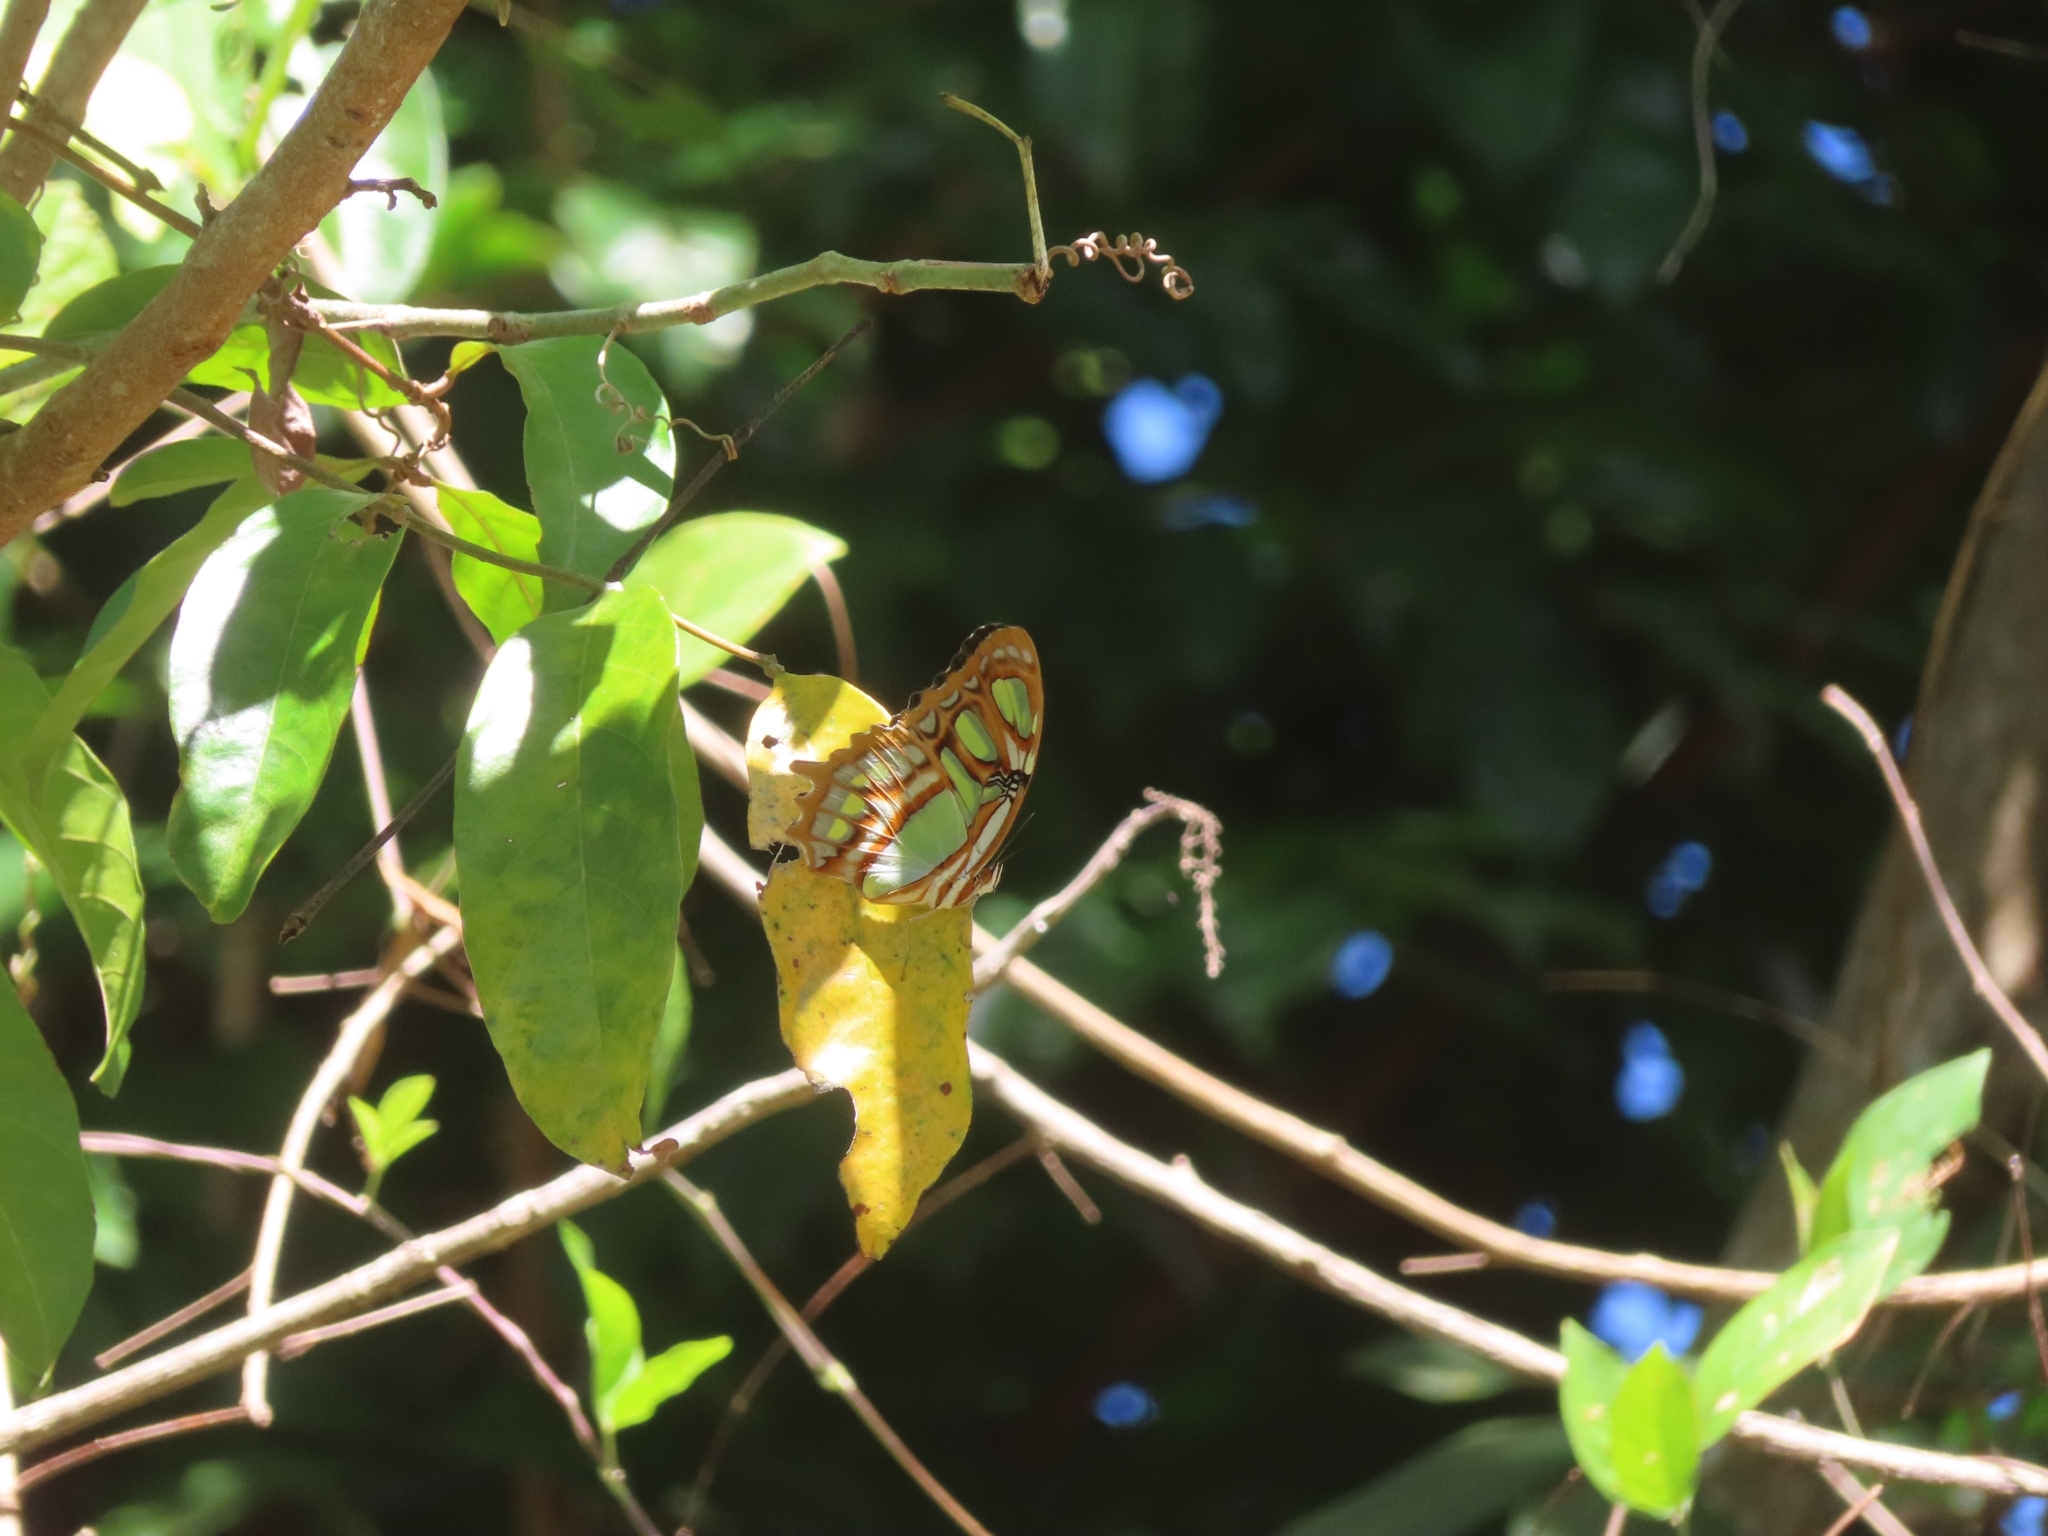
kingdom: Animalia
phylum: Arthropoda
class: Insecta
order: Lepidoptera
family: Nymphalidae
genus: Siproeta
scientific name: Siproeta stelenes
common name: Malachite
